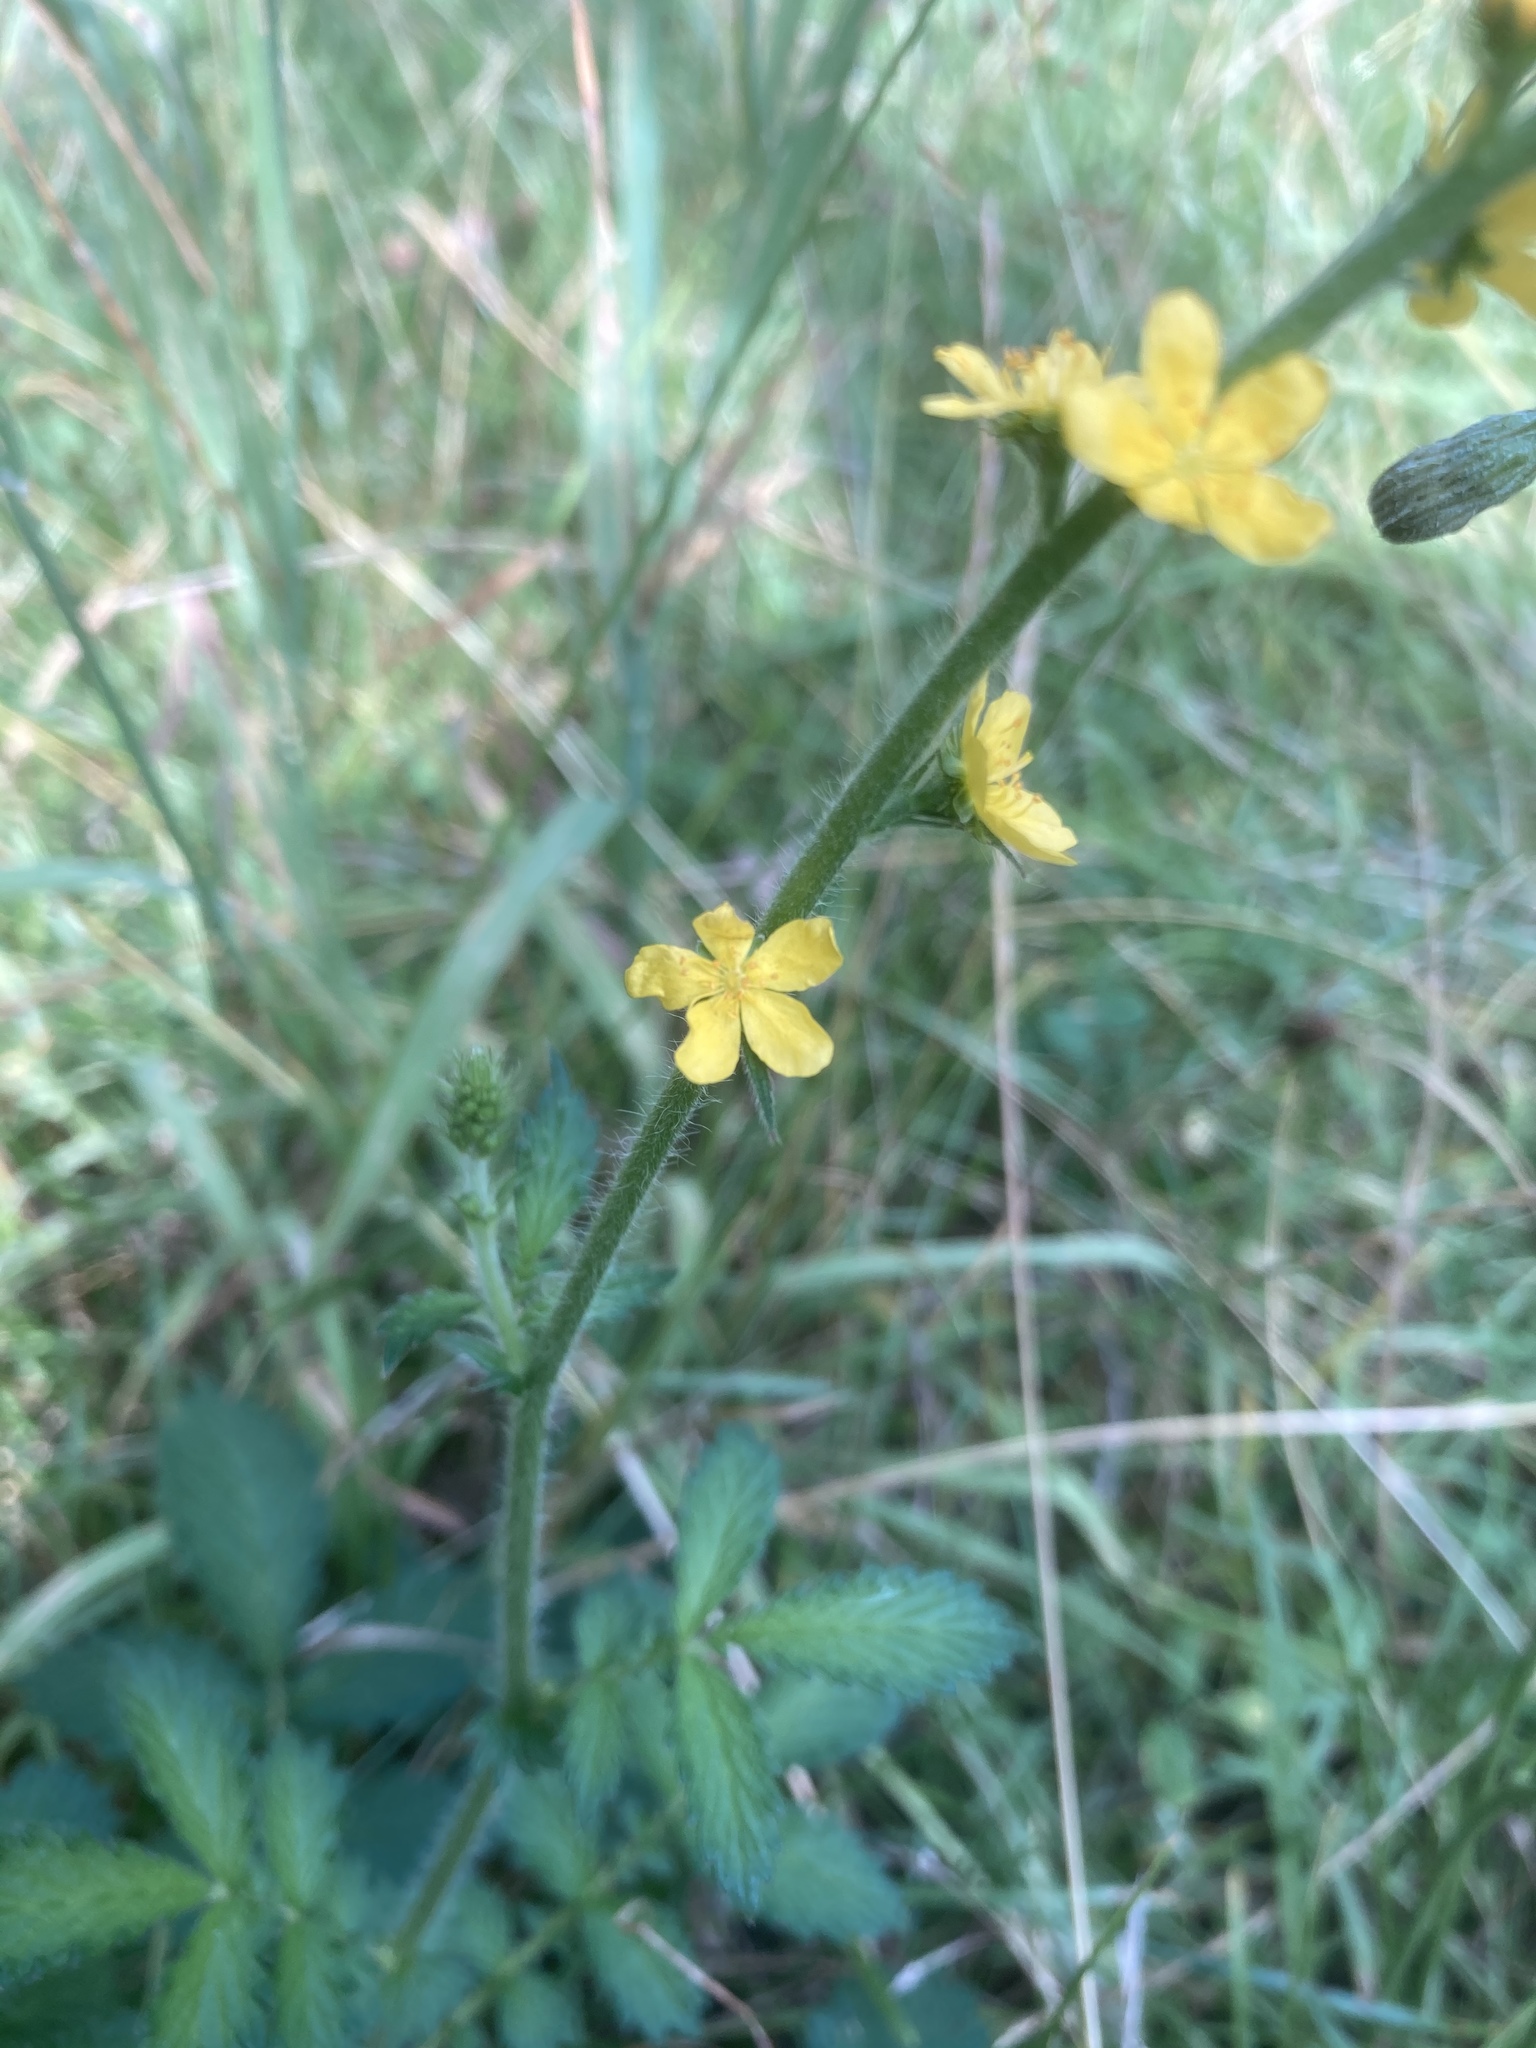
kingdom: Plantae
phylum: Tracheophyta
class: Magnoliopsida
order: Rosales
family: Rosaceae
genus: Agrimonia
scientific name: Agrimonia eupatoria
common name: Agrimony
